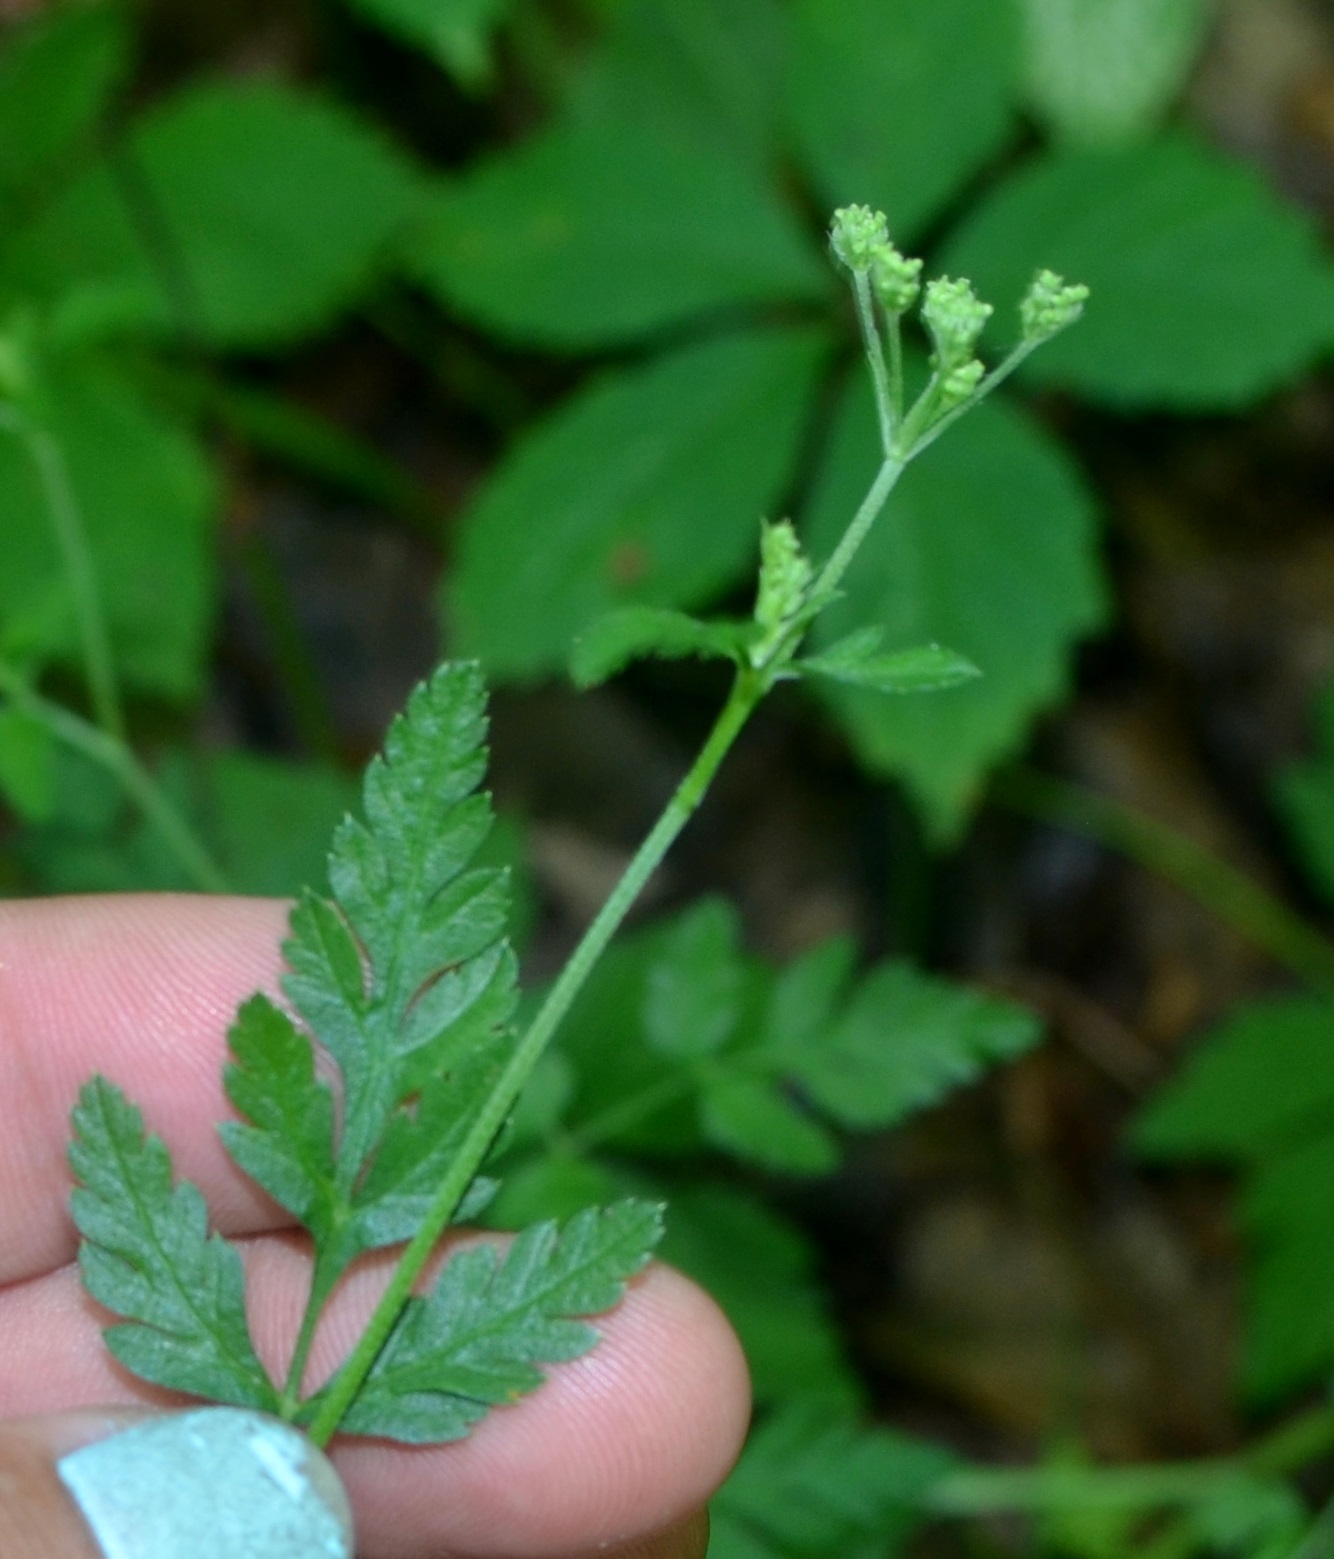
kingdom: Plantae
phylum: Tracheophyta
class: Magnoliopsida
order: Apiales
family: Apiaceae
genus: Torilis
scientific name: Torilis japonica
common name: Upright hedge-parsley
